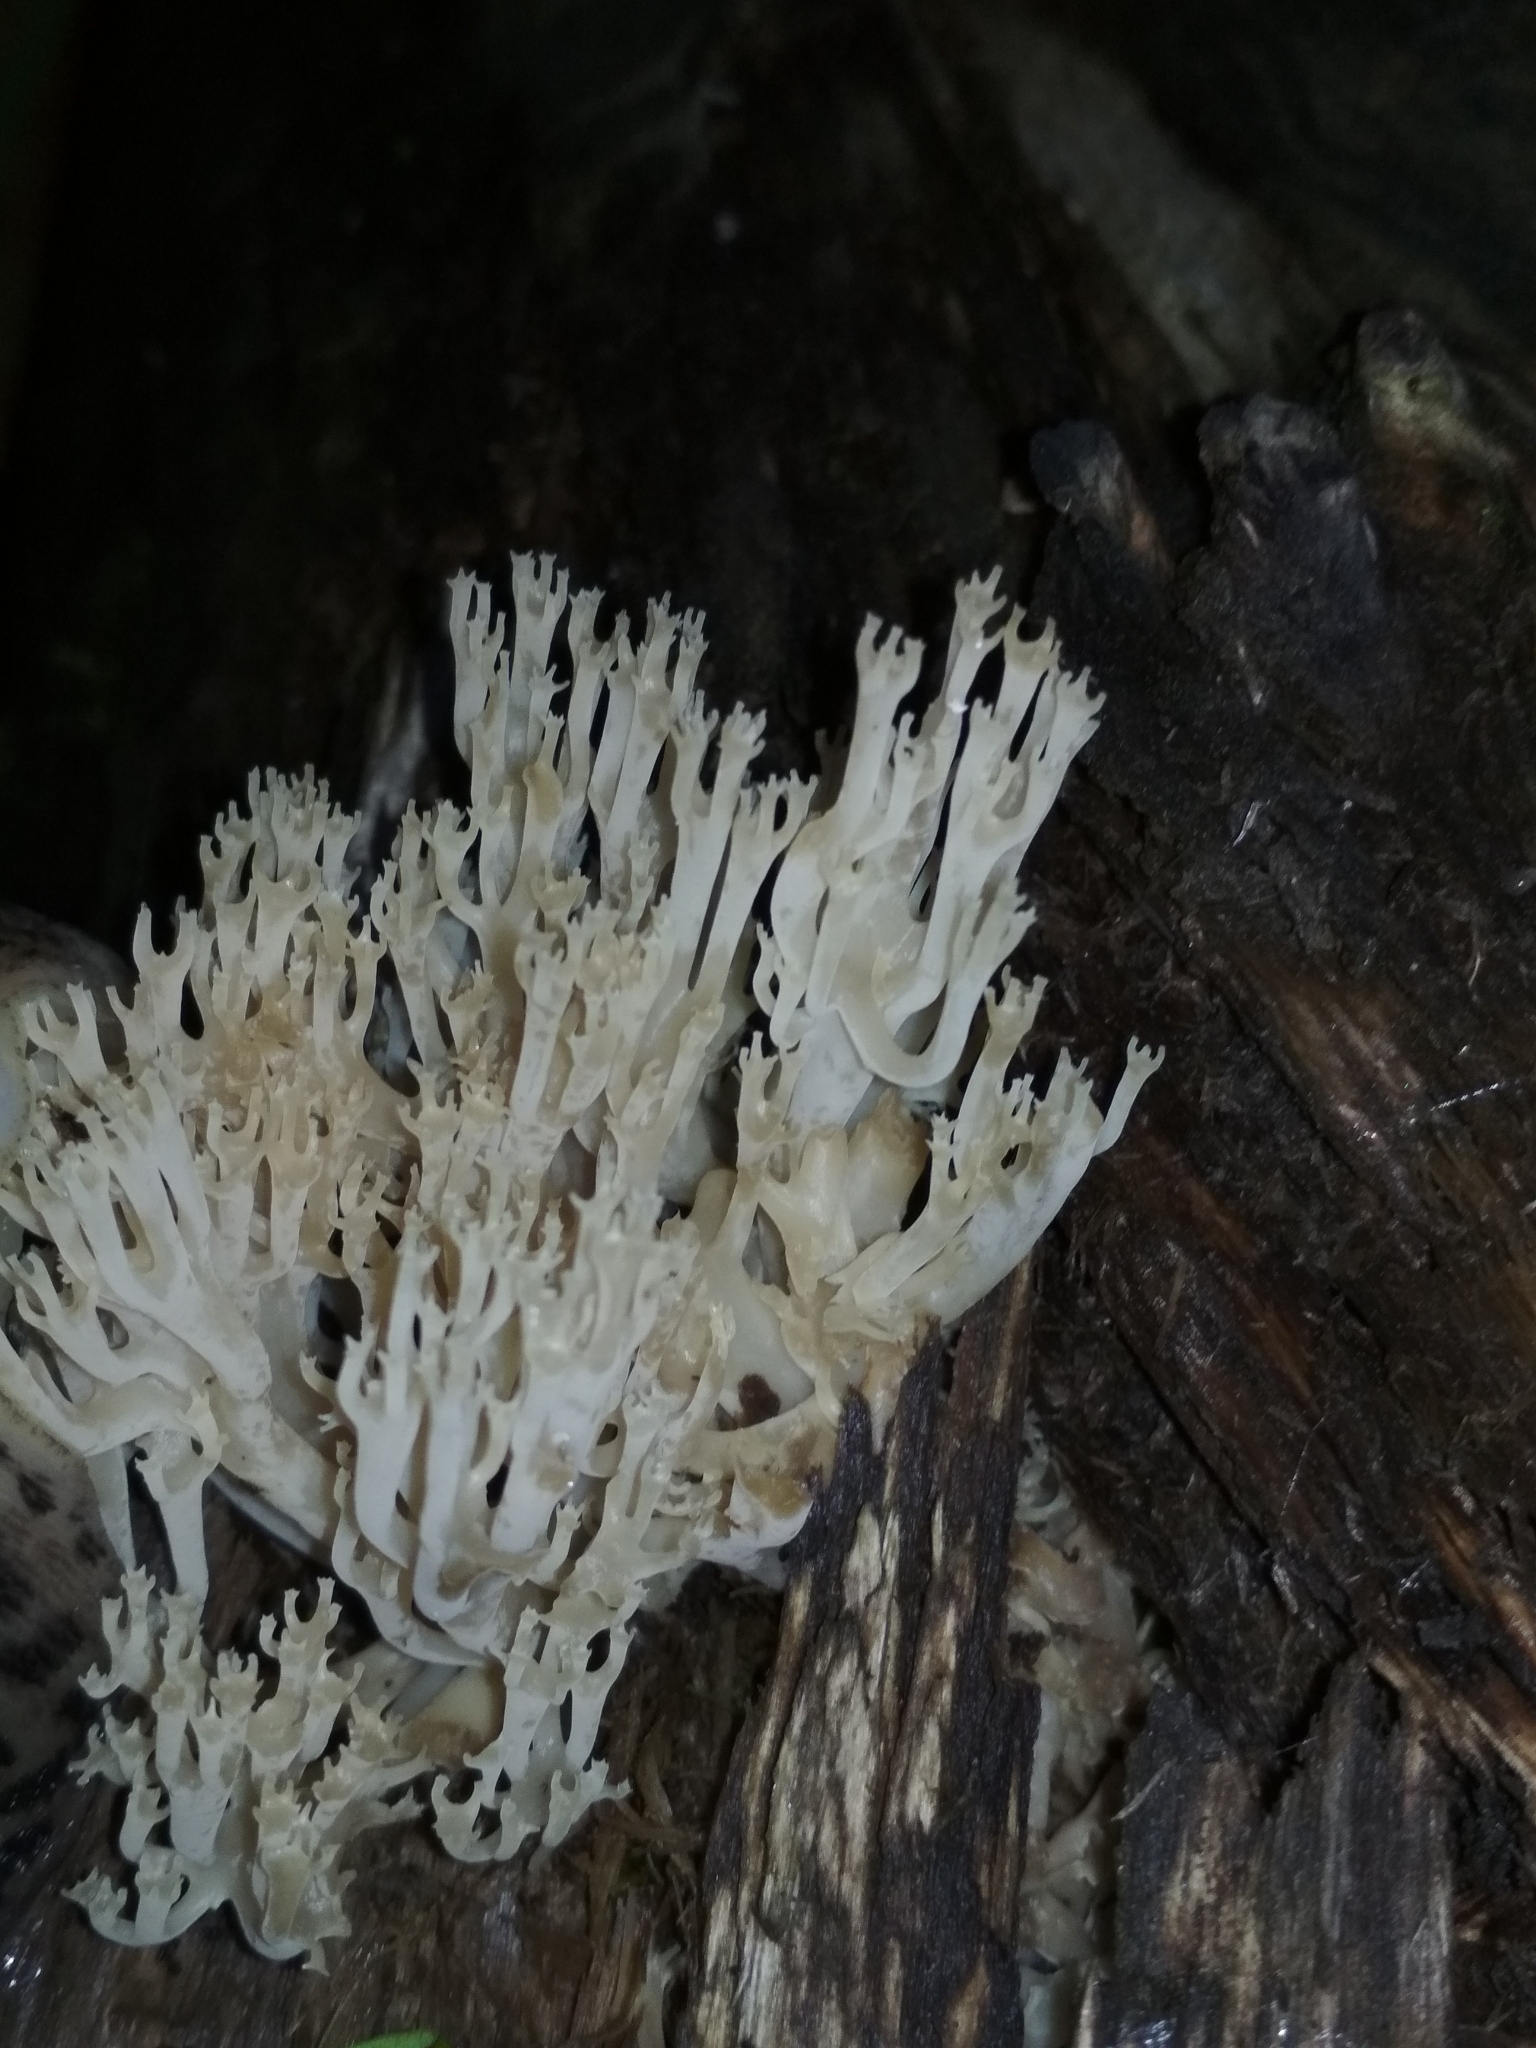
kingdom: Fungi
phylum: Basidiomycota
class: Agaricomycetes
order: Russulales
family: Auriscalpiaceae
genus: Artomyces
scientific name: Artomyces pyxidatus
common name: Crown-tipped coral fungus
